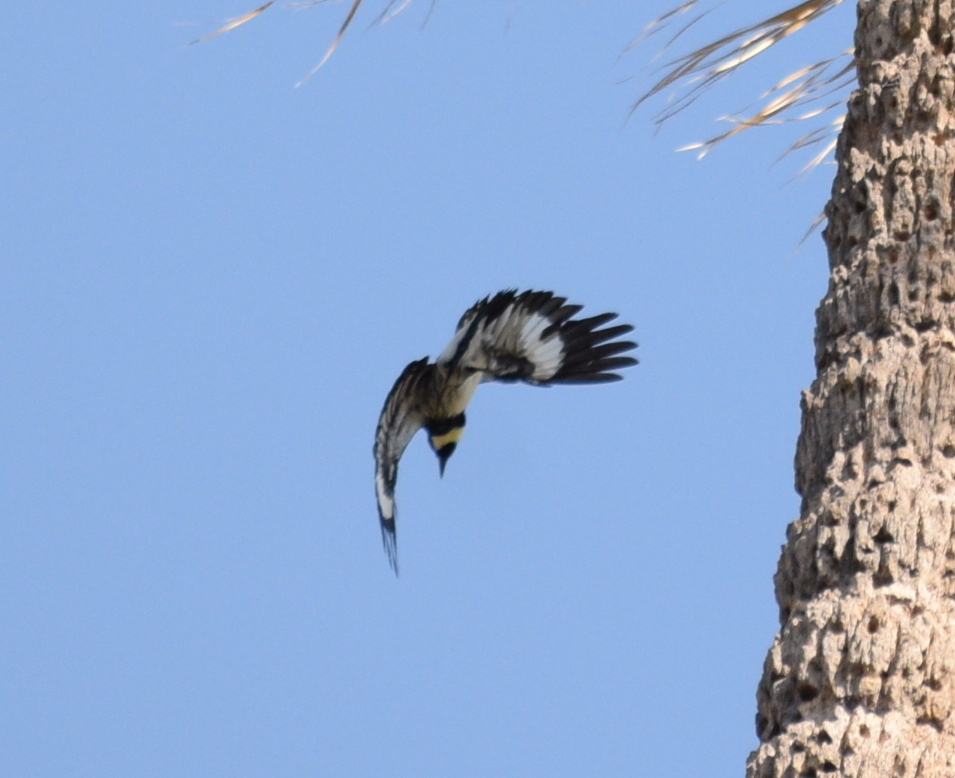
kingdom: Animalia
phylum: Chordata
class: Aves
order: Piciformes
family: Picidae
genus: Melanerpes
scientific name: Melanerpes formicivorus
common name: Acorn woodpecker
